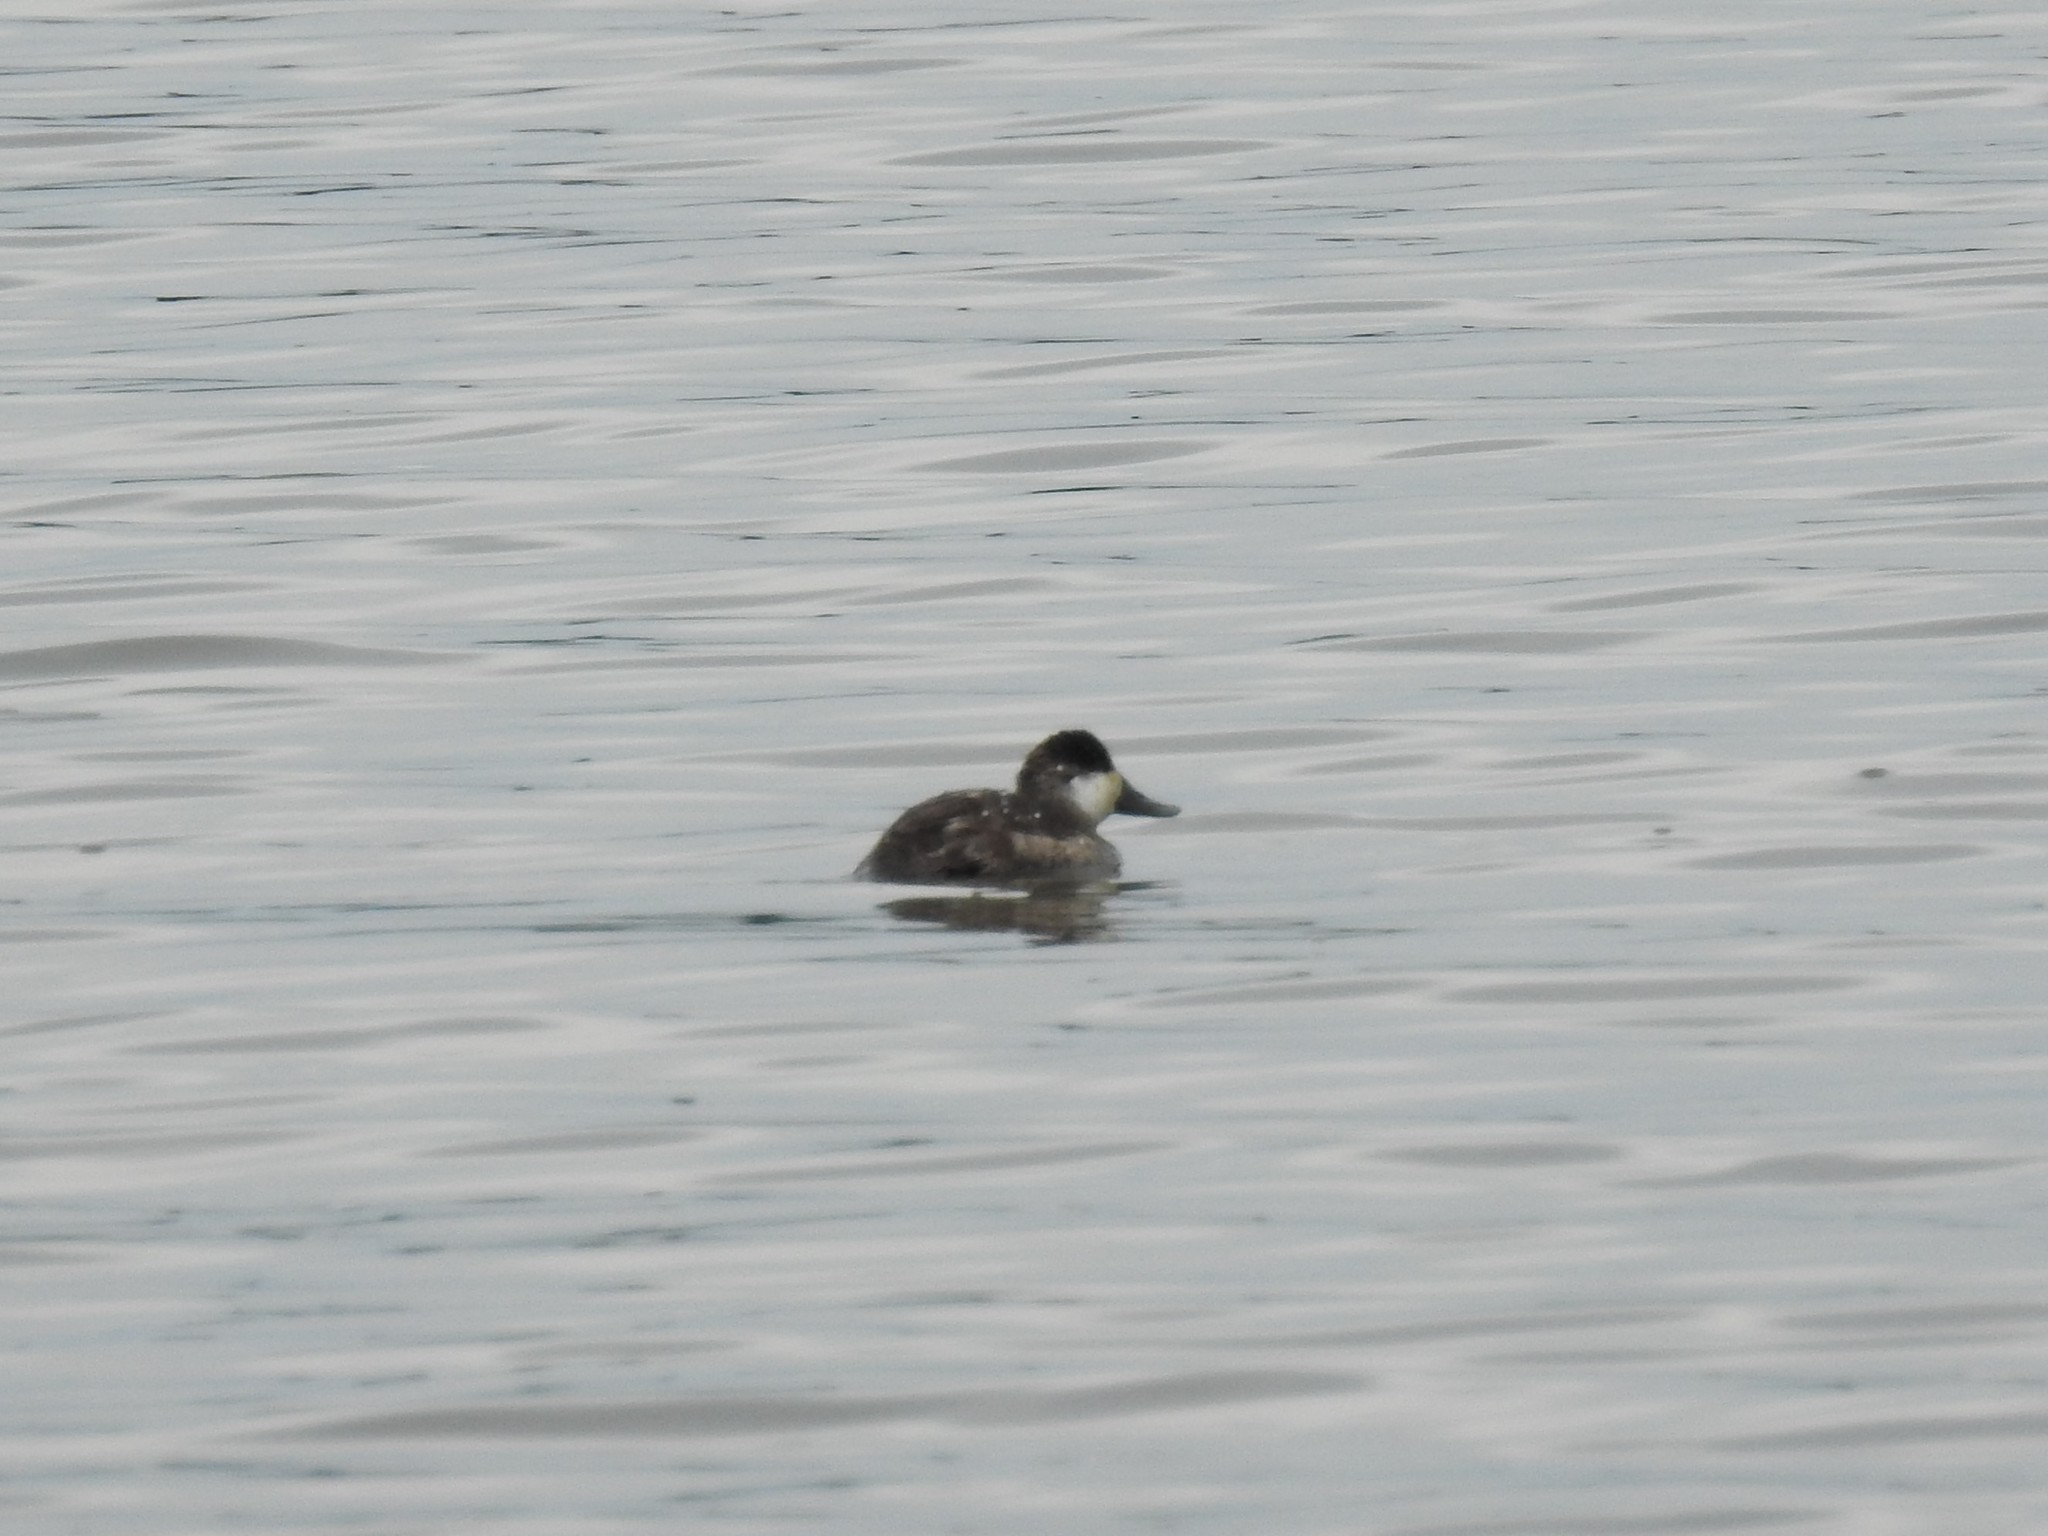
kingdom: Animalia
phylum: Chordata
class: Aves
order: Anseriformes
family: Anatidae
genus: Oxyura
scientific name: Oxyura jamaicensis
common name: Ruddy duck
